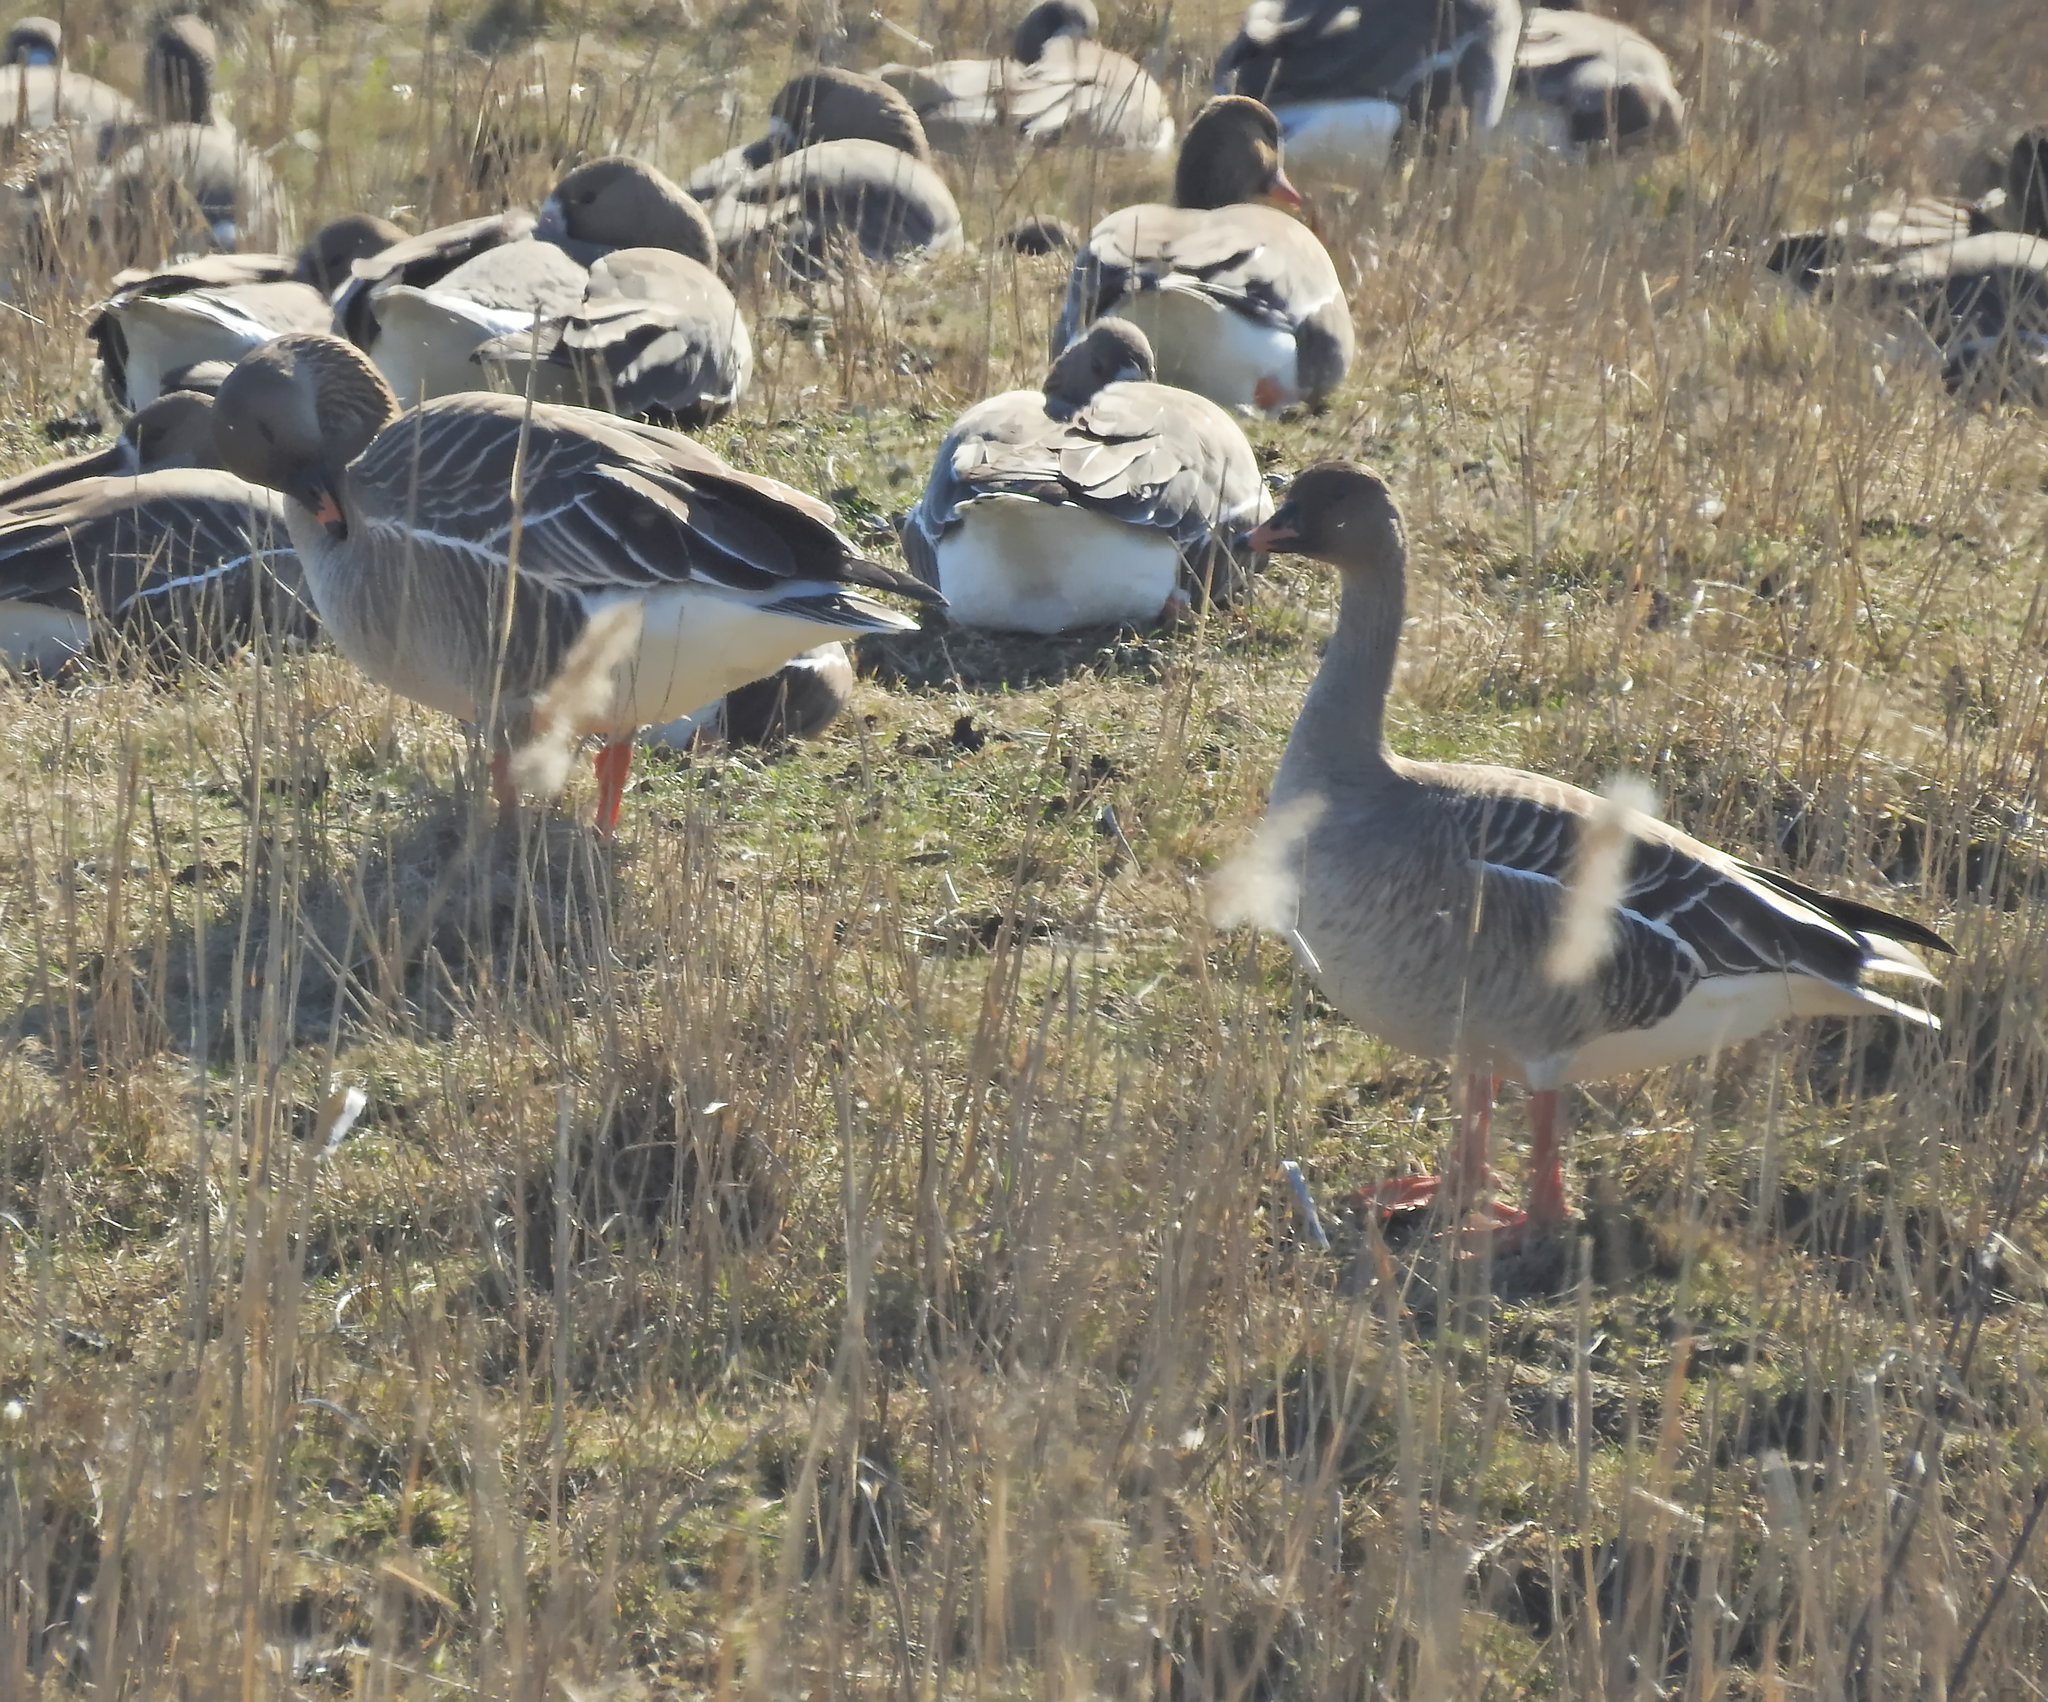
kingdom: Animalia
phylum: Chordata
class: Aves
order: Anseriformes
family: Anatidae
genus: Anser
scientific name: Anser serrirostris
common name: Tundra bean goose
